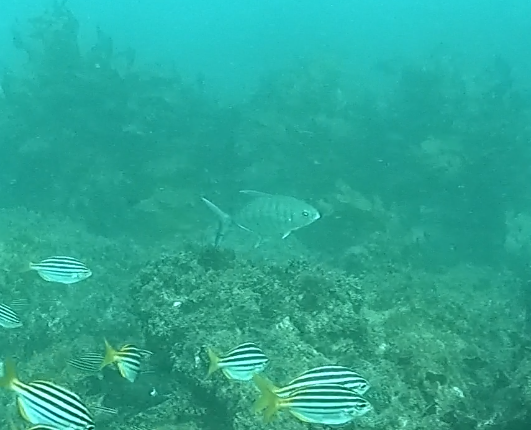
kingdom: Animalia
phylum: Chordata
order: Perciformes
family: Carangidae
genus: Carangoides
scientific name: Carangoides Ferdauia ferdau
